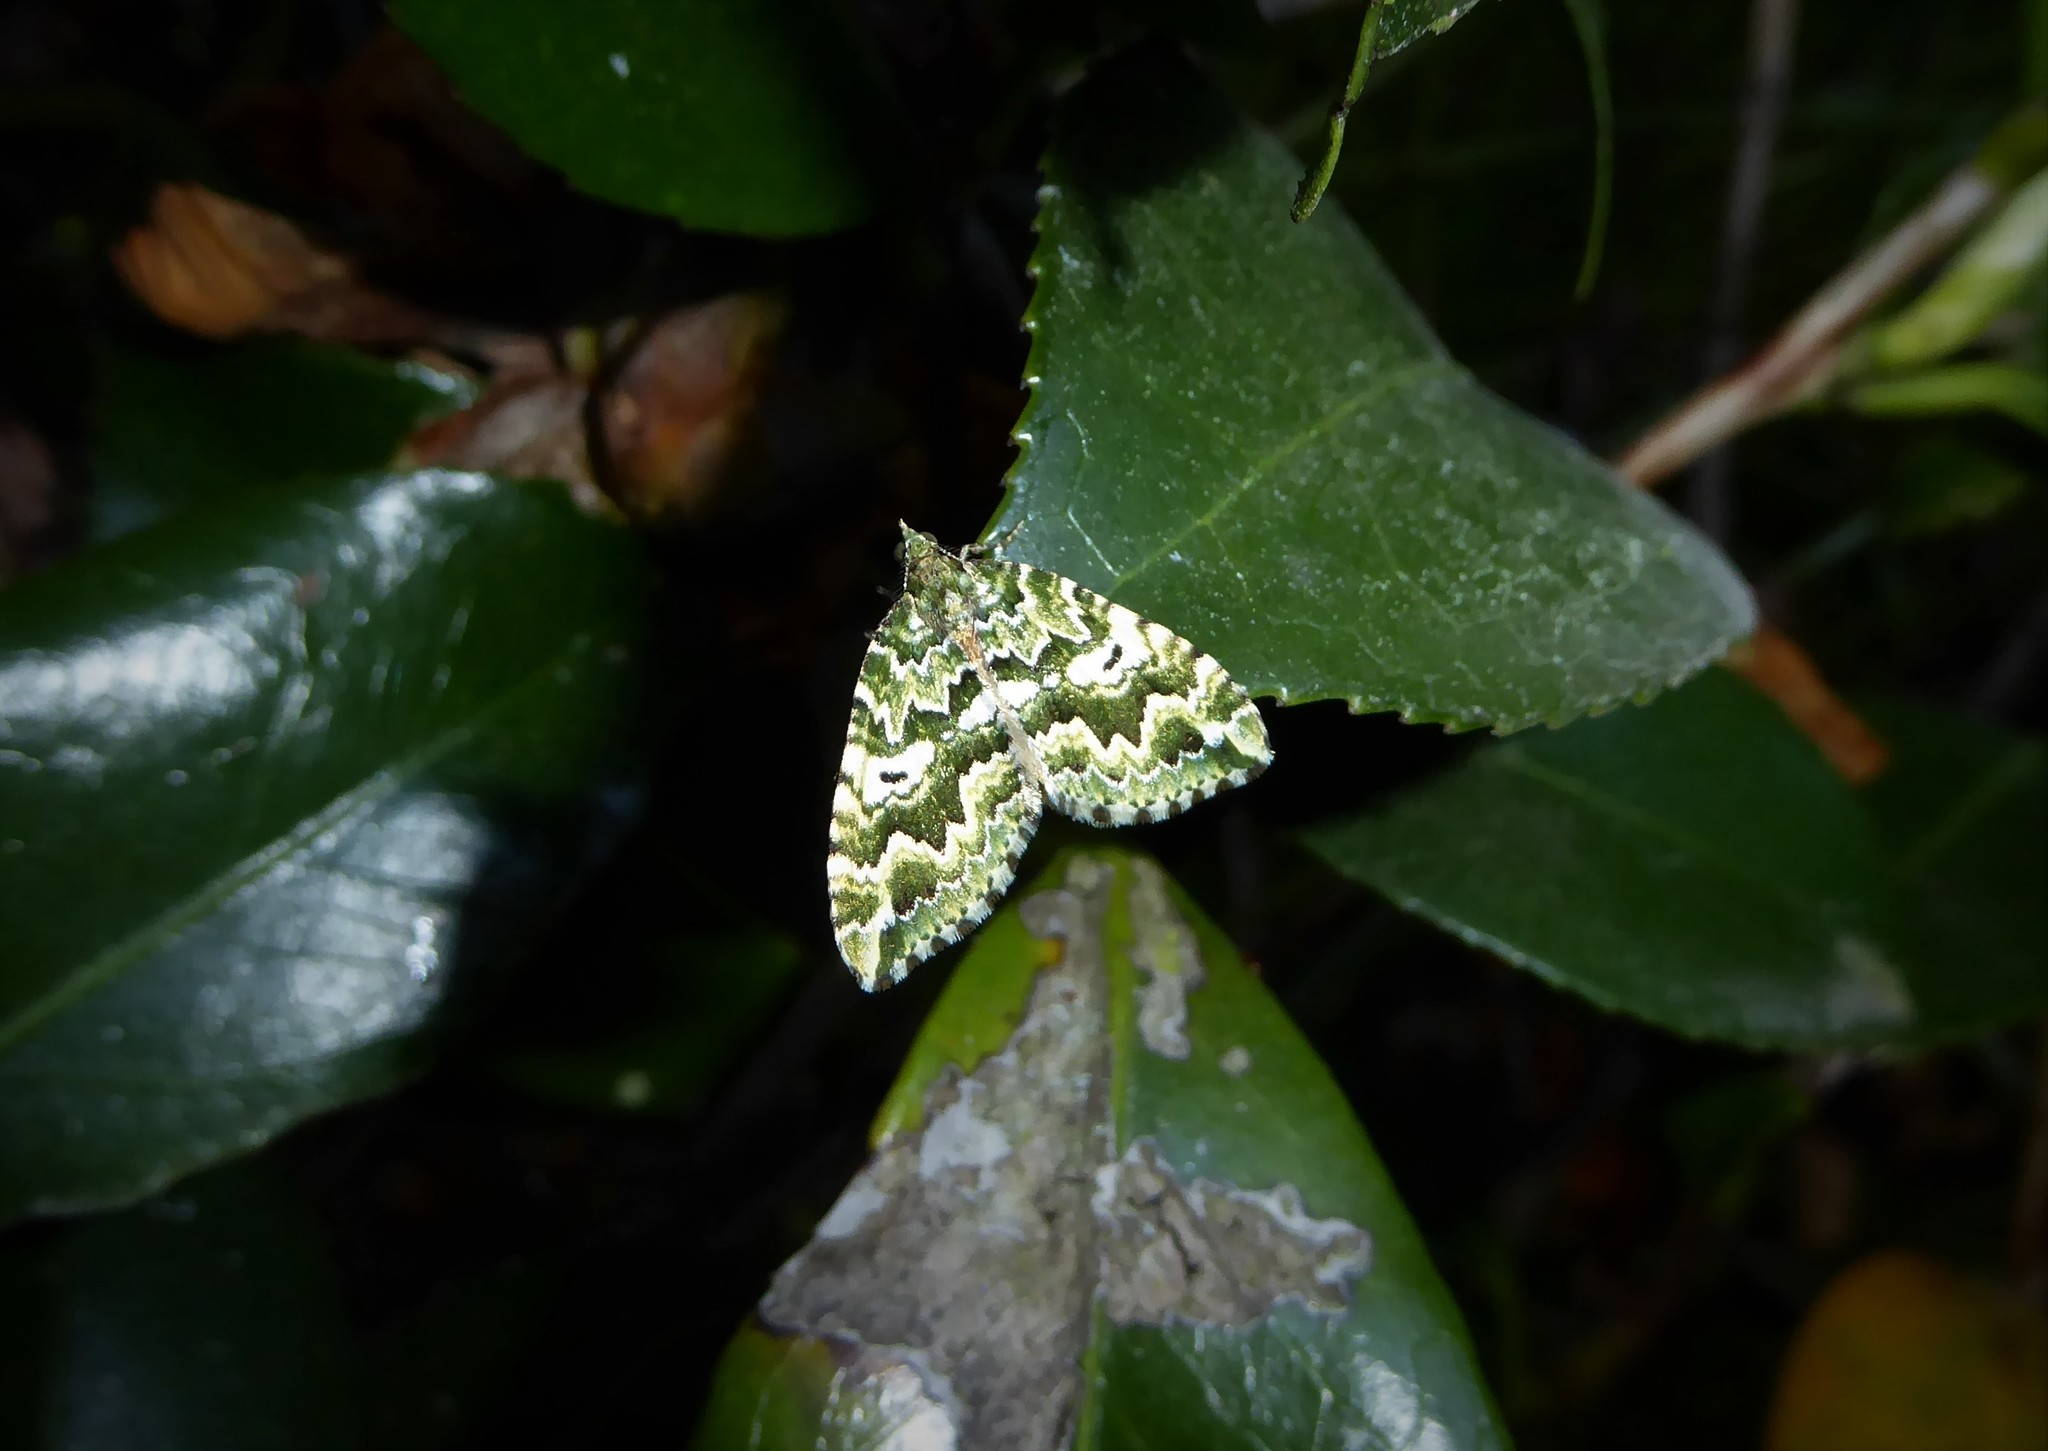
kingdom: Animalia
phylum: Arthropoda
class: Insecta
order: Lepidoptera
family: Geometridae
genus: Asaphodes
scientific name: Asaphodes beata
